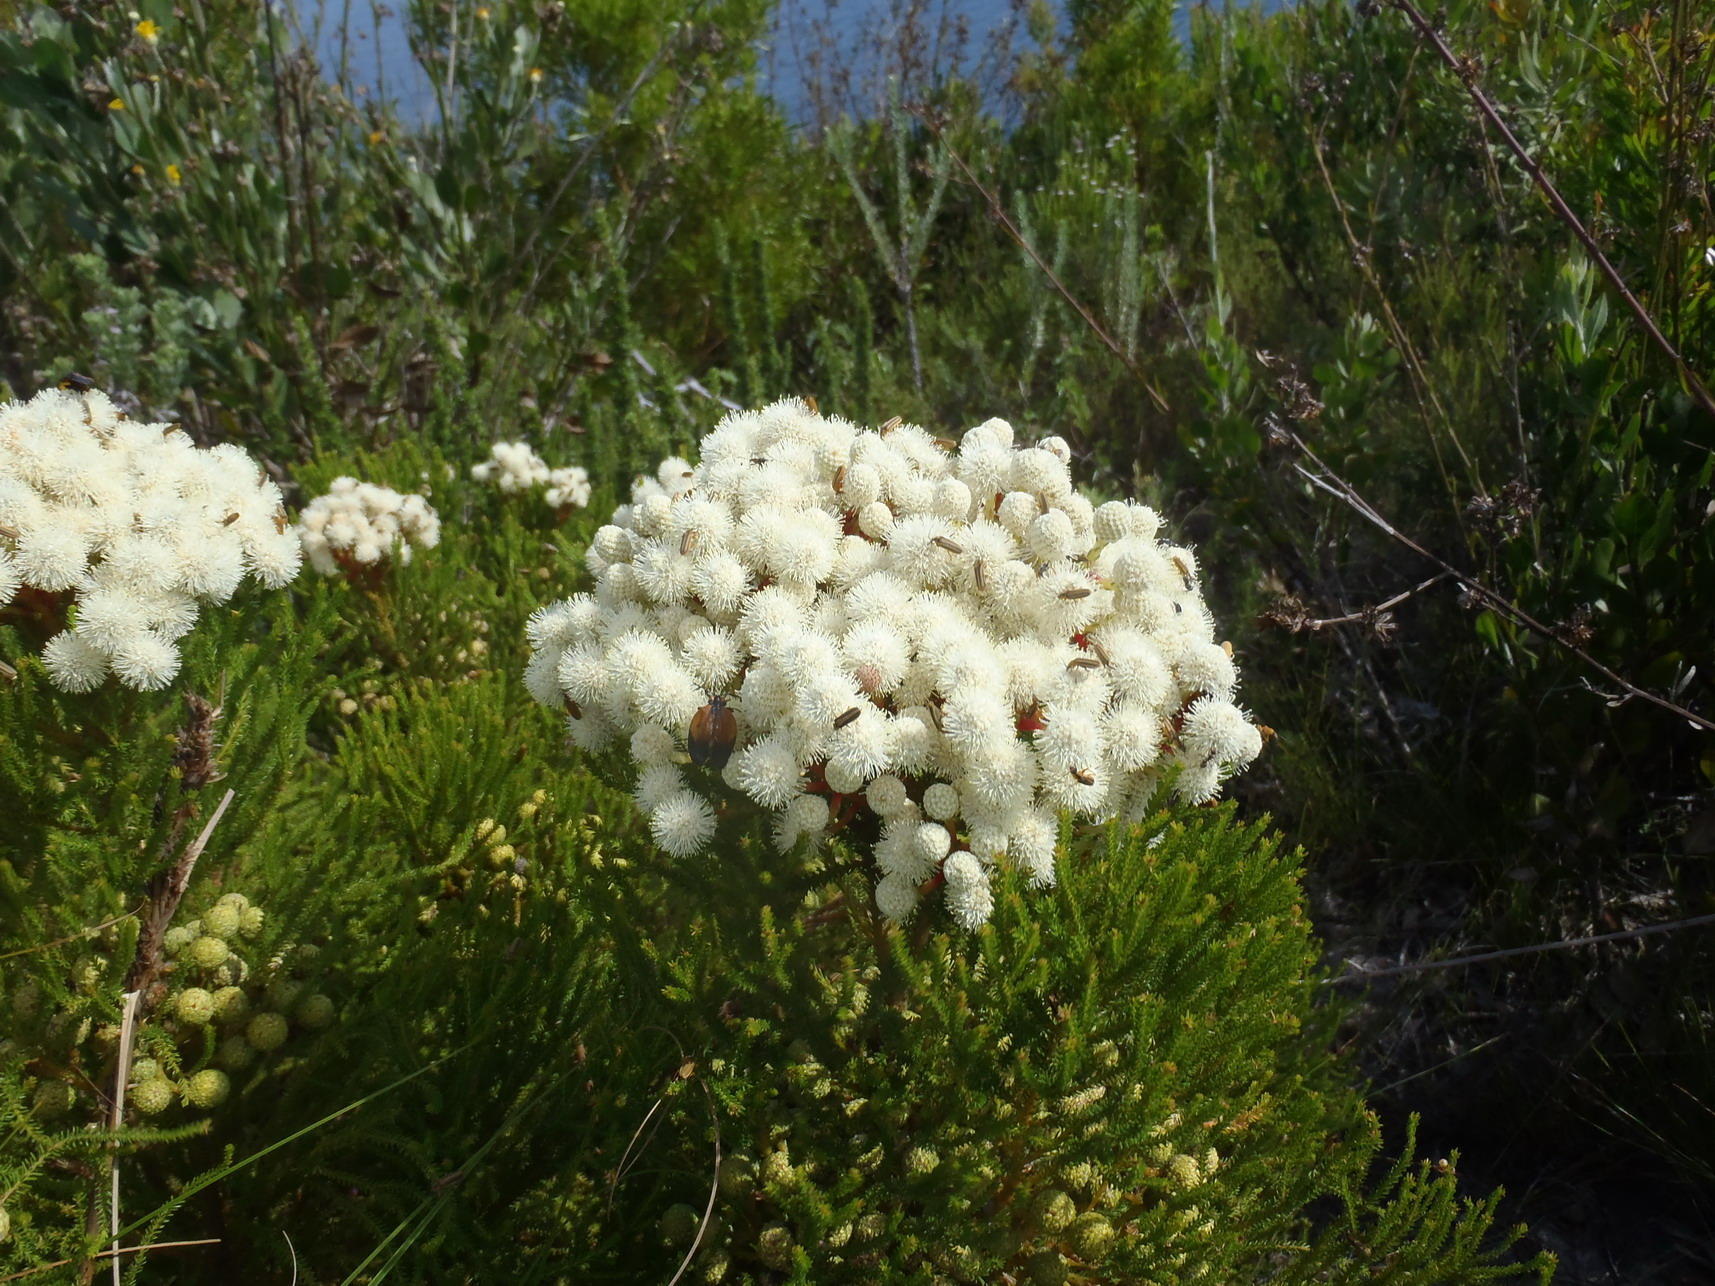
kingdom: Plantae
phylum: Tracheophyta
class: Magnoliopsida
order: Bruniales
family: Bruniaceae
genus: Berzelia
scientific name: Berzelia commutata
